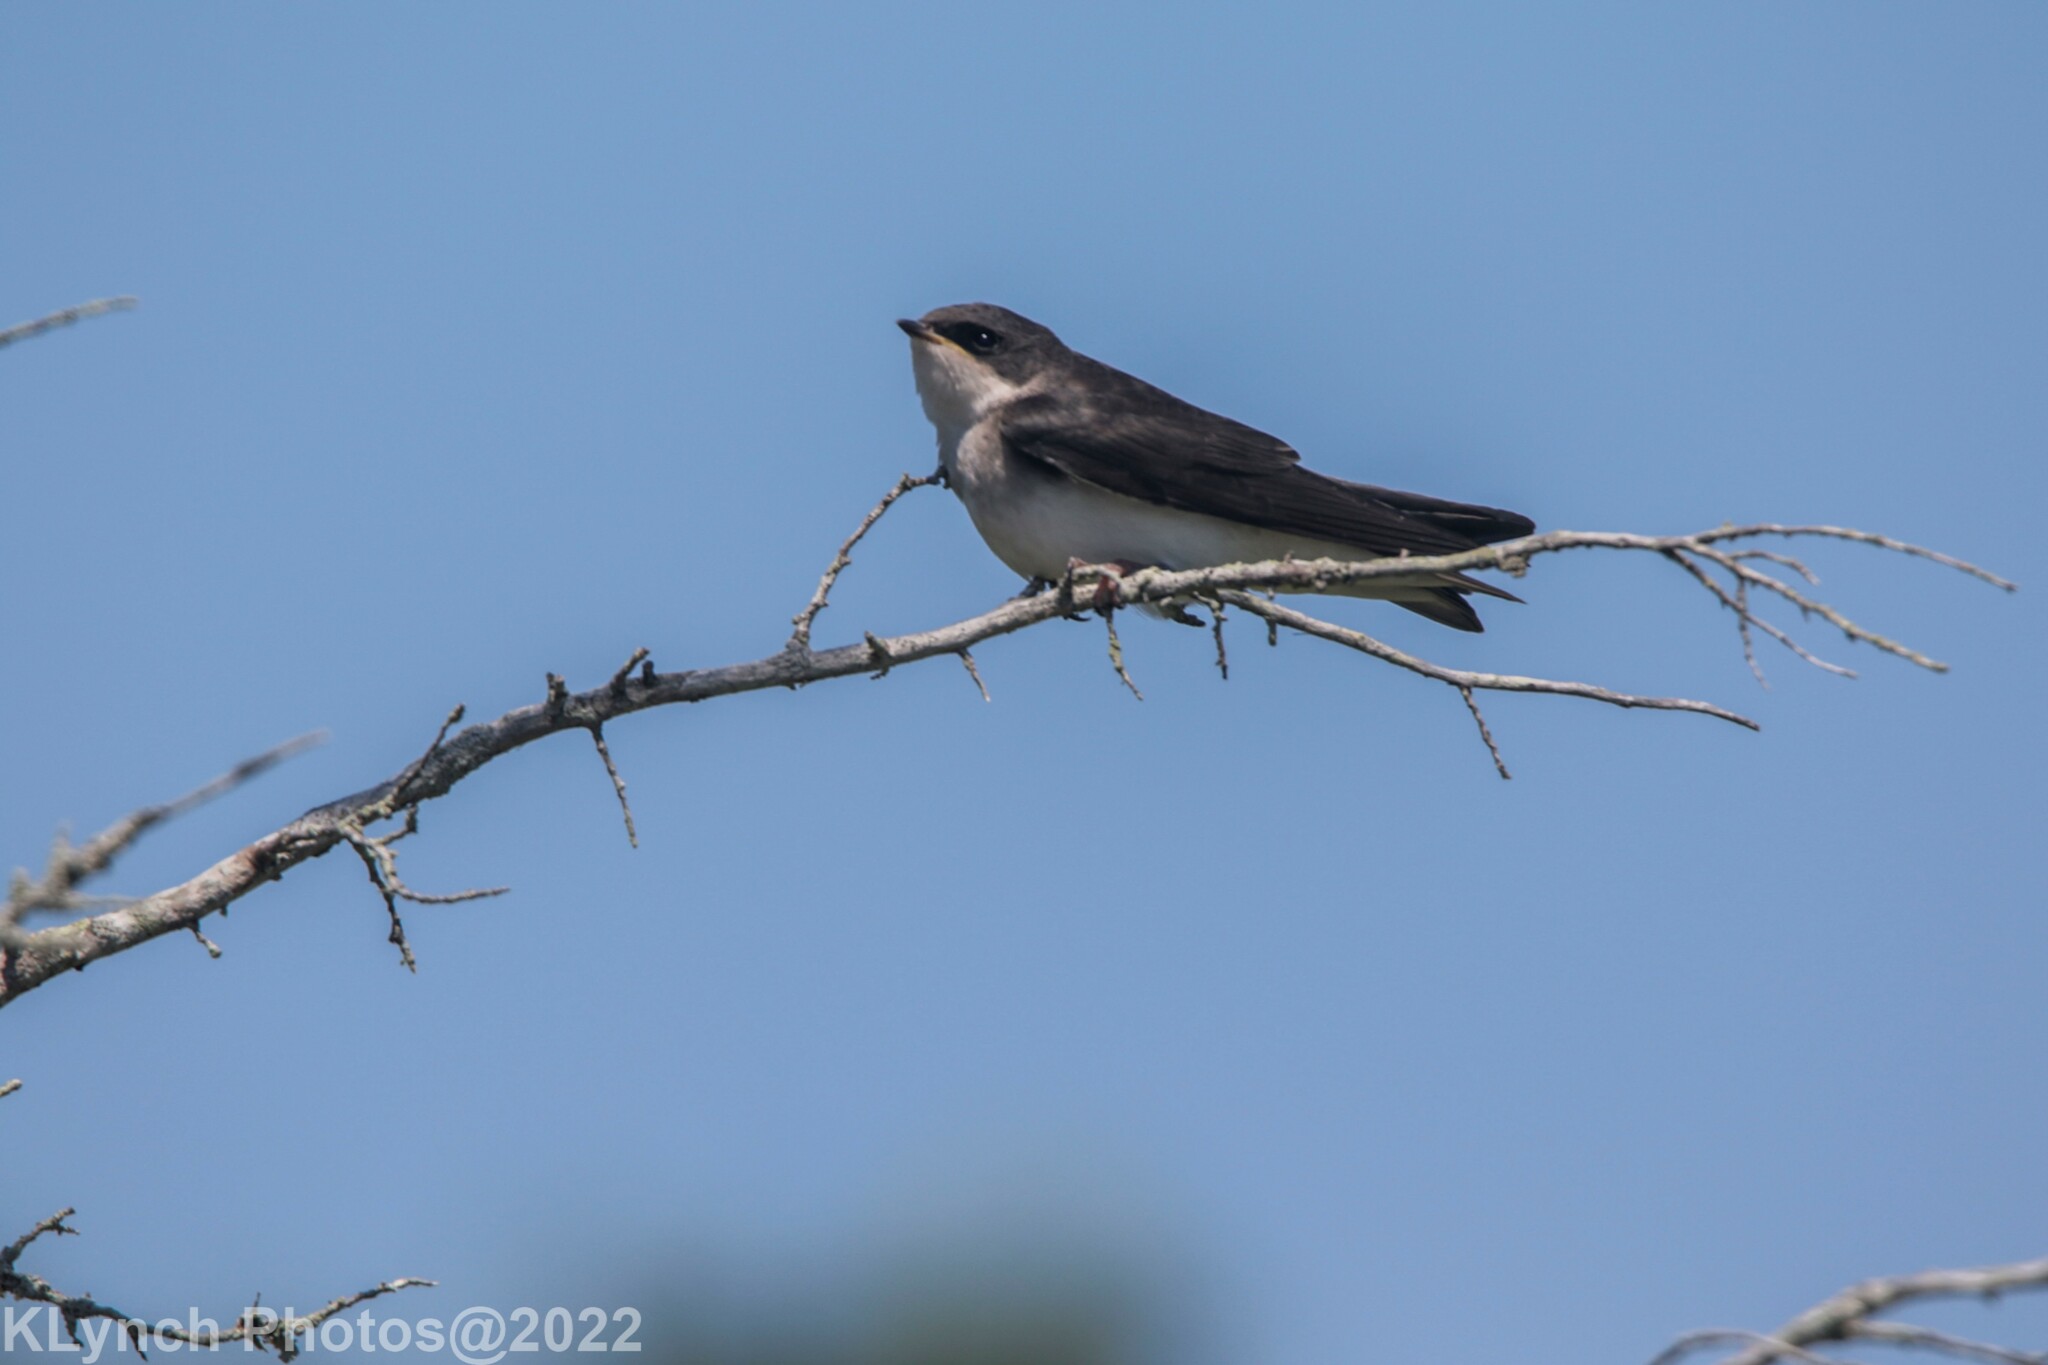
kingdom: Animalia
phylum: Chordata
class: Aves
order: Passeriformes
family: Hirundinidae
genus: Tachycineta
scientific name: Tachycineta bicolor
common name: Tree swallow
